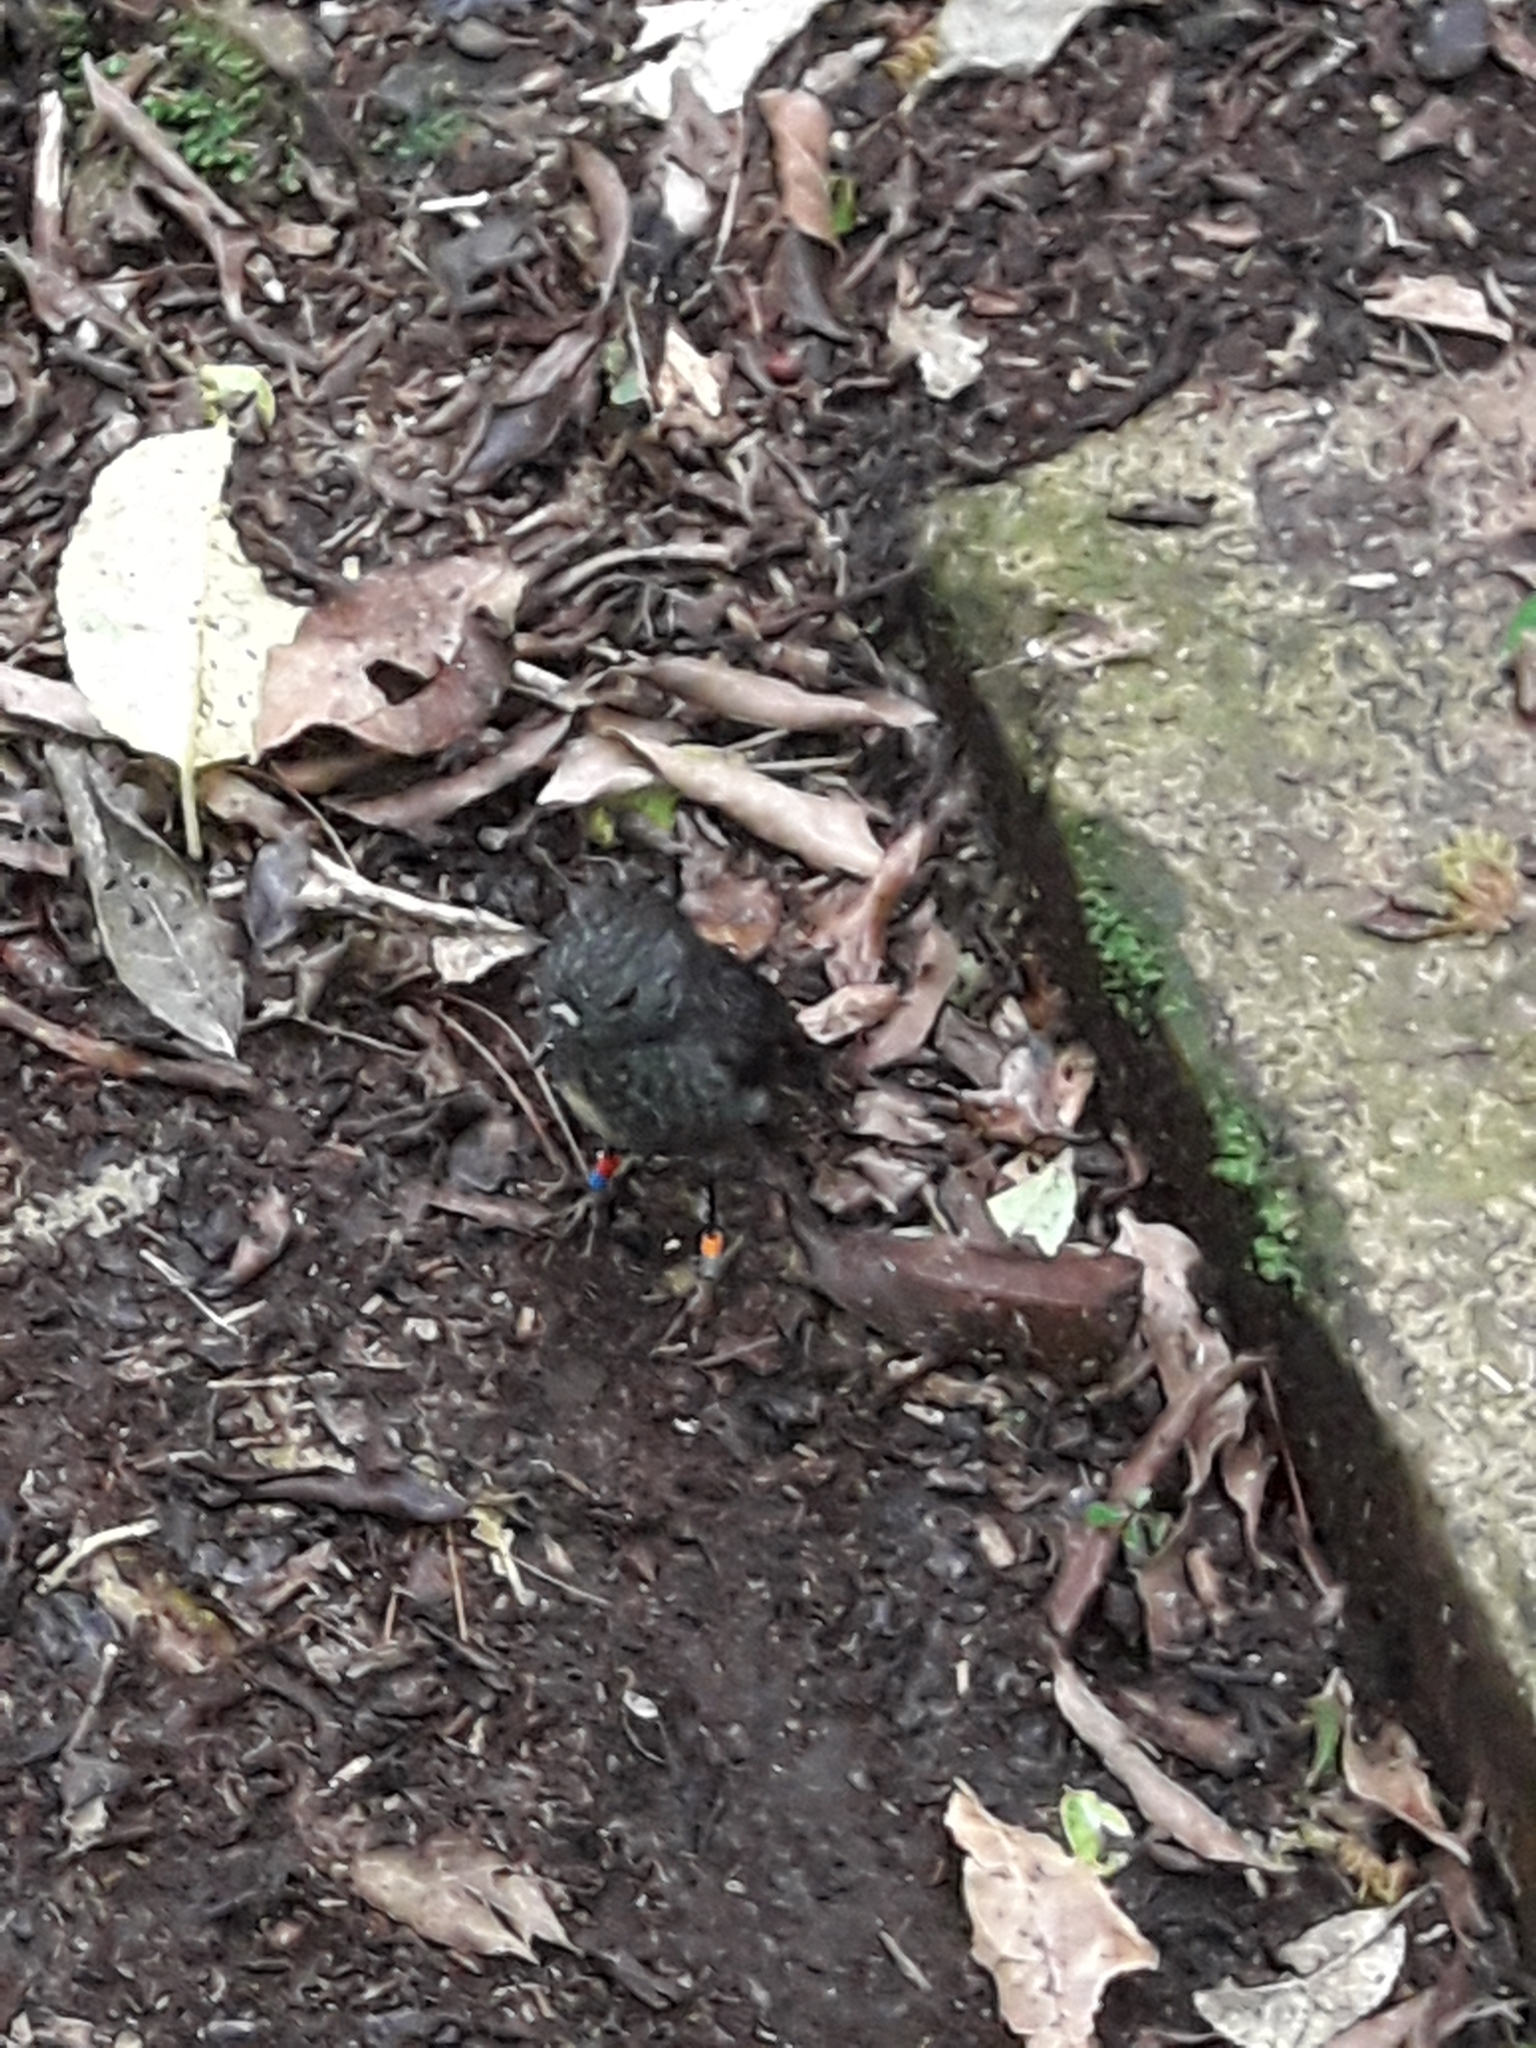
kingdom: Animalia
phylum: Chordata
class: Aves
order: Passeriformes
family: Petroicidae
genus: Petroica
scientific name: Petroica australis
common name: New zealand robin
